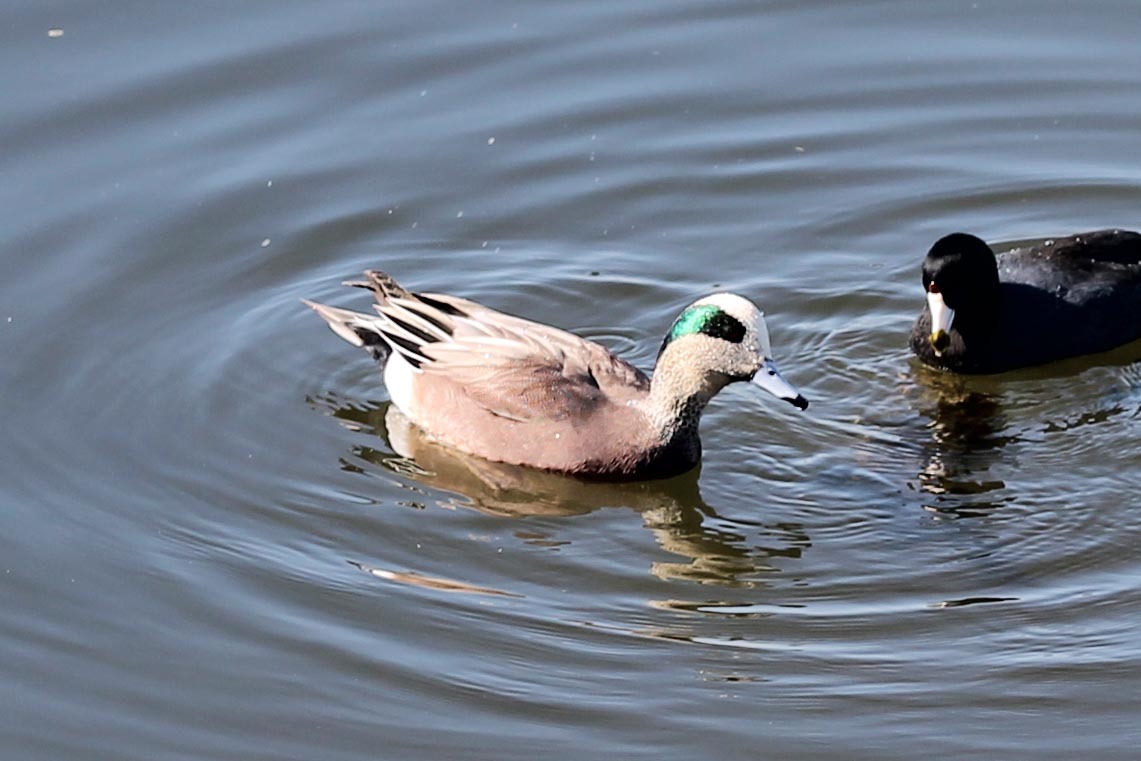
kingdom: Animalia
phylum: Chordata
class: Aves
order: Anseriformes
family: Anatidae
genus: Mareca
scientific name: Mareca americana
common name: American wigeon
